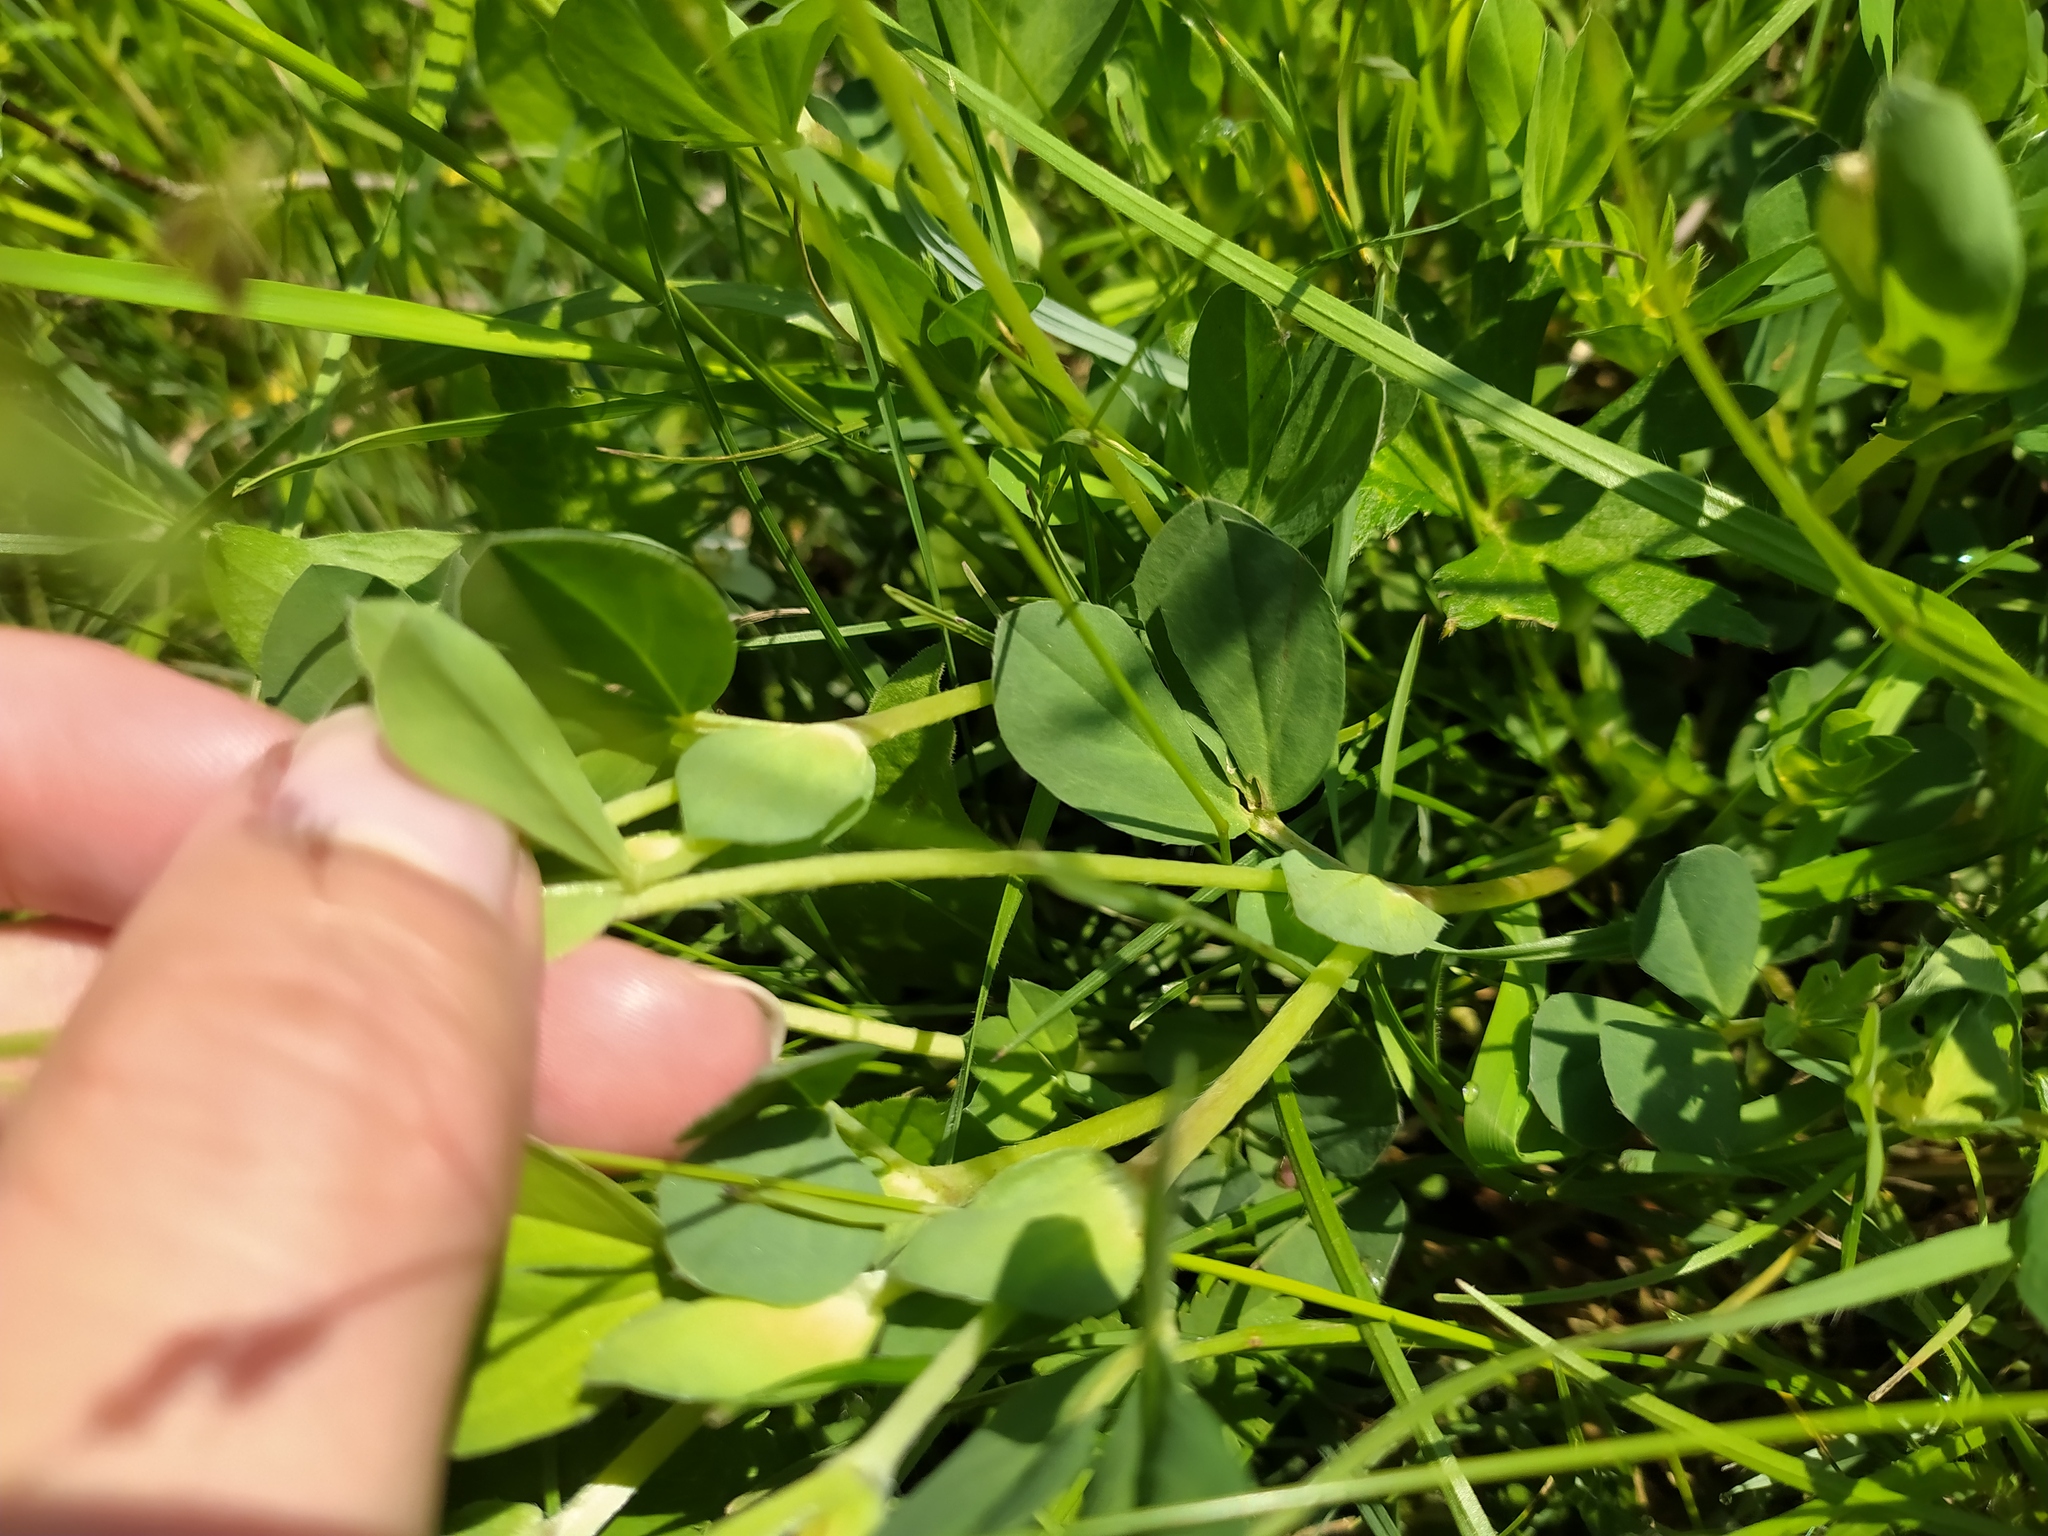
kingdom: Plantae
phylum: Tracheophyta
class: Magnoliopsida
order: Fabales
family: Fabaceae
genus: Lotus
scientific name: Lotus maritimus
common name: Dragon's-teeth
